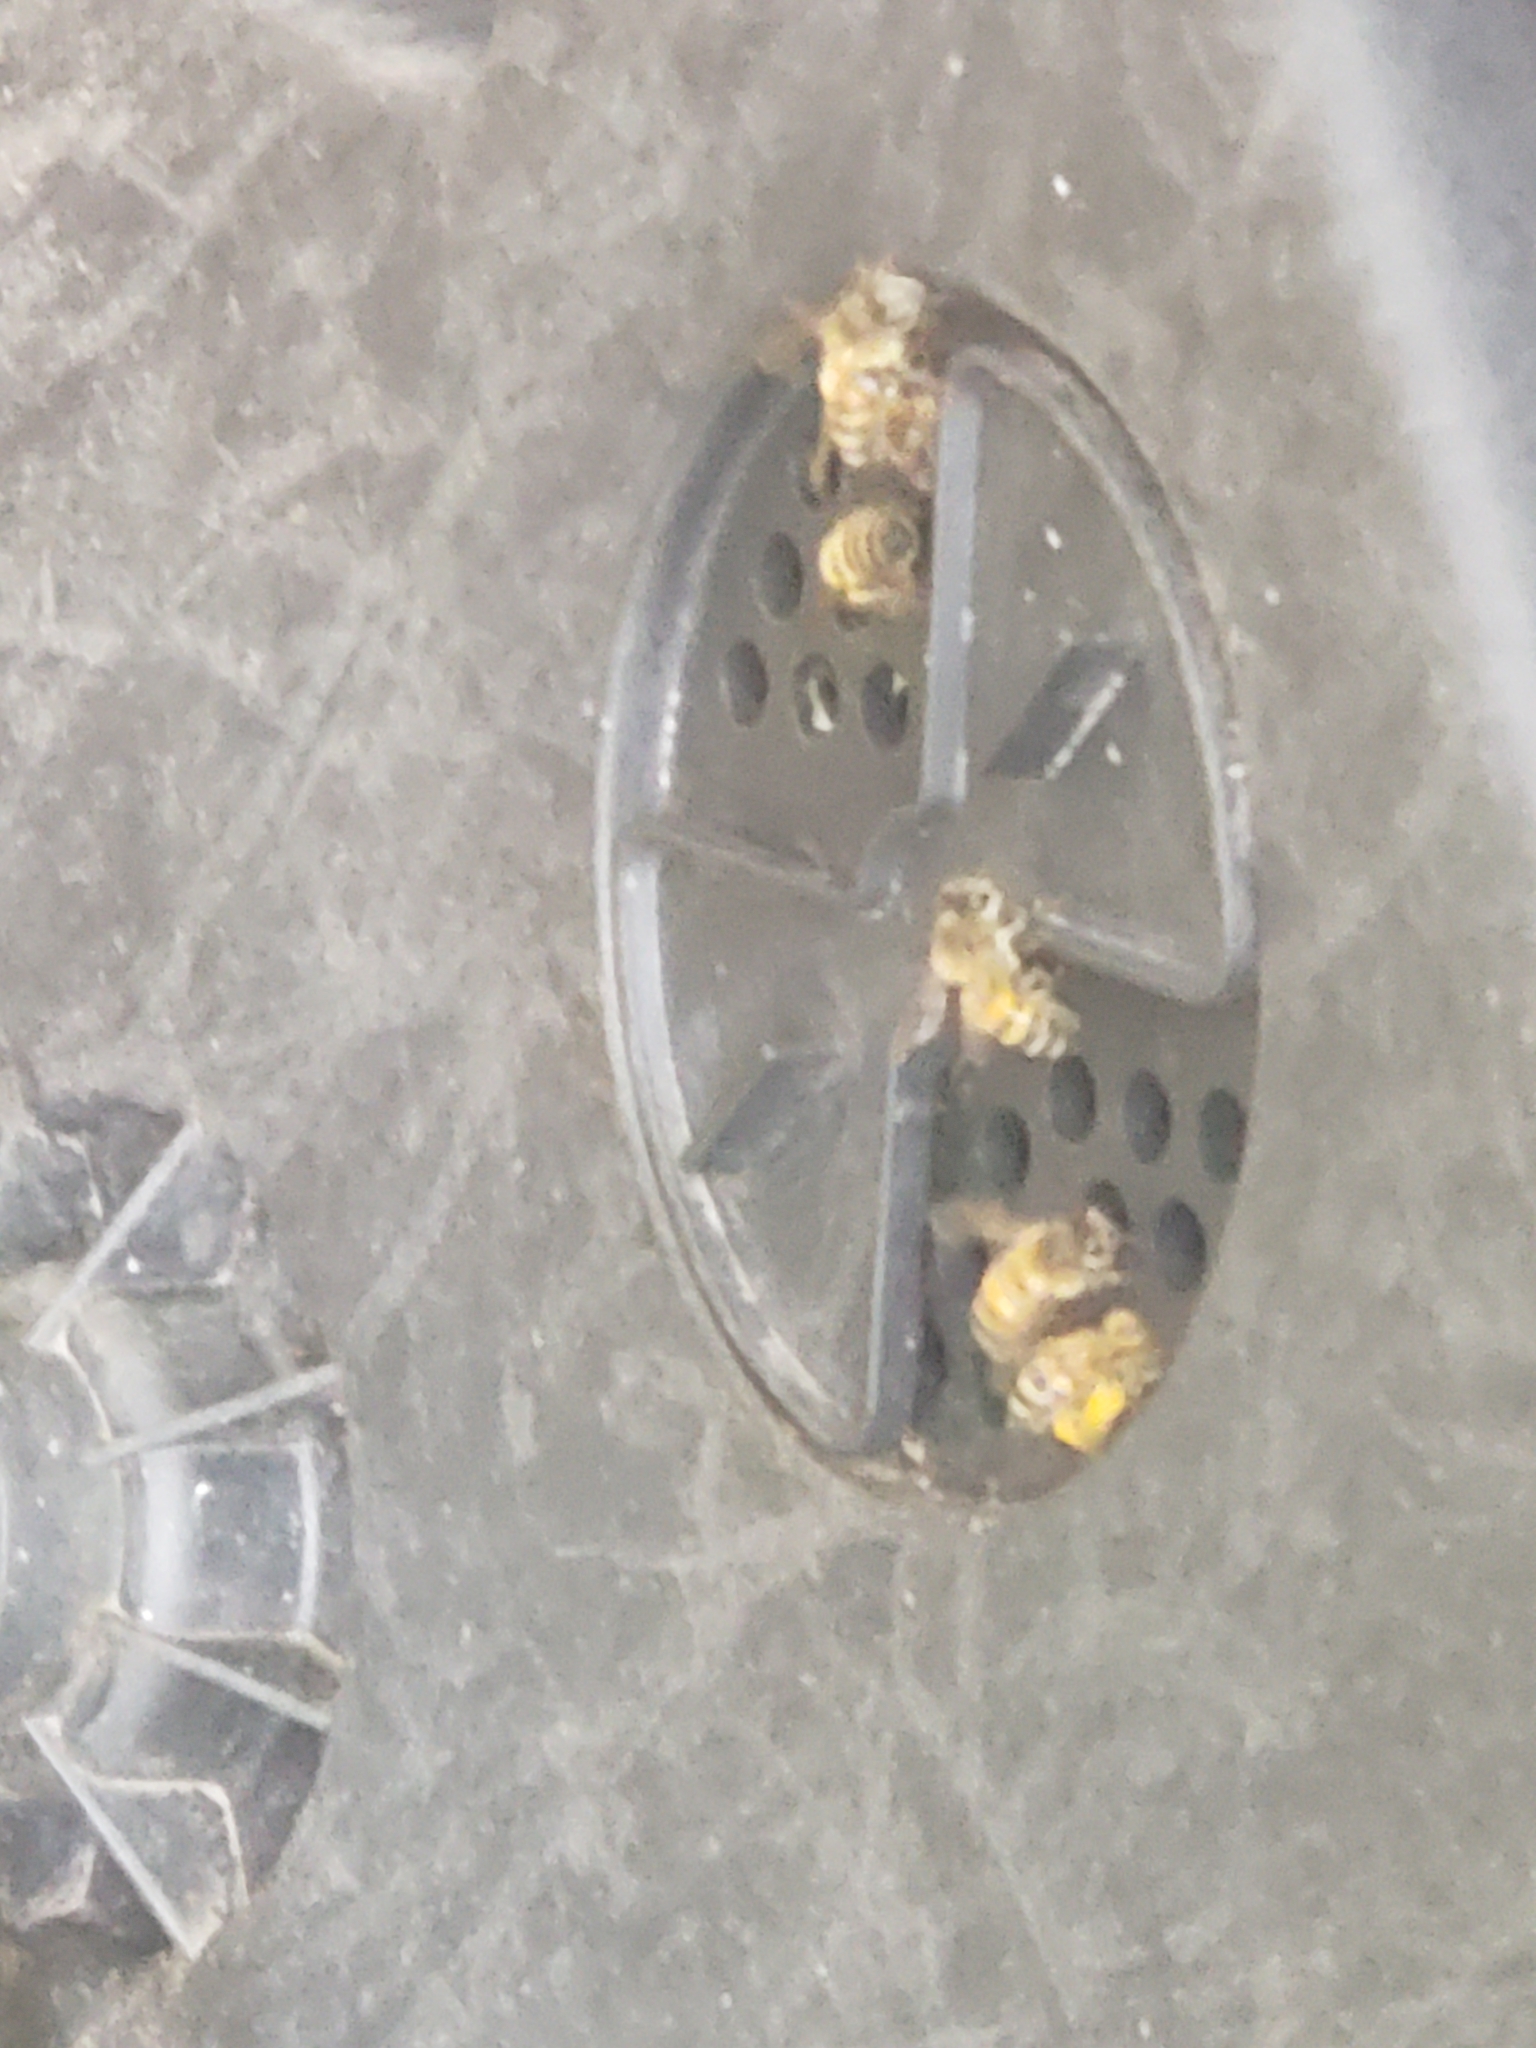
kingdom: Animalia
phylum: Arthropoda
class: Insecta
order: Hymenoptera
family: Apidae
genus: Apis
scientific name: Apis mellifera
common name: Honey bee
